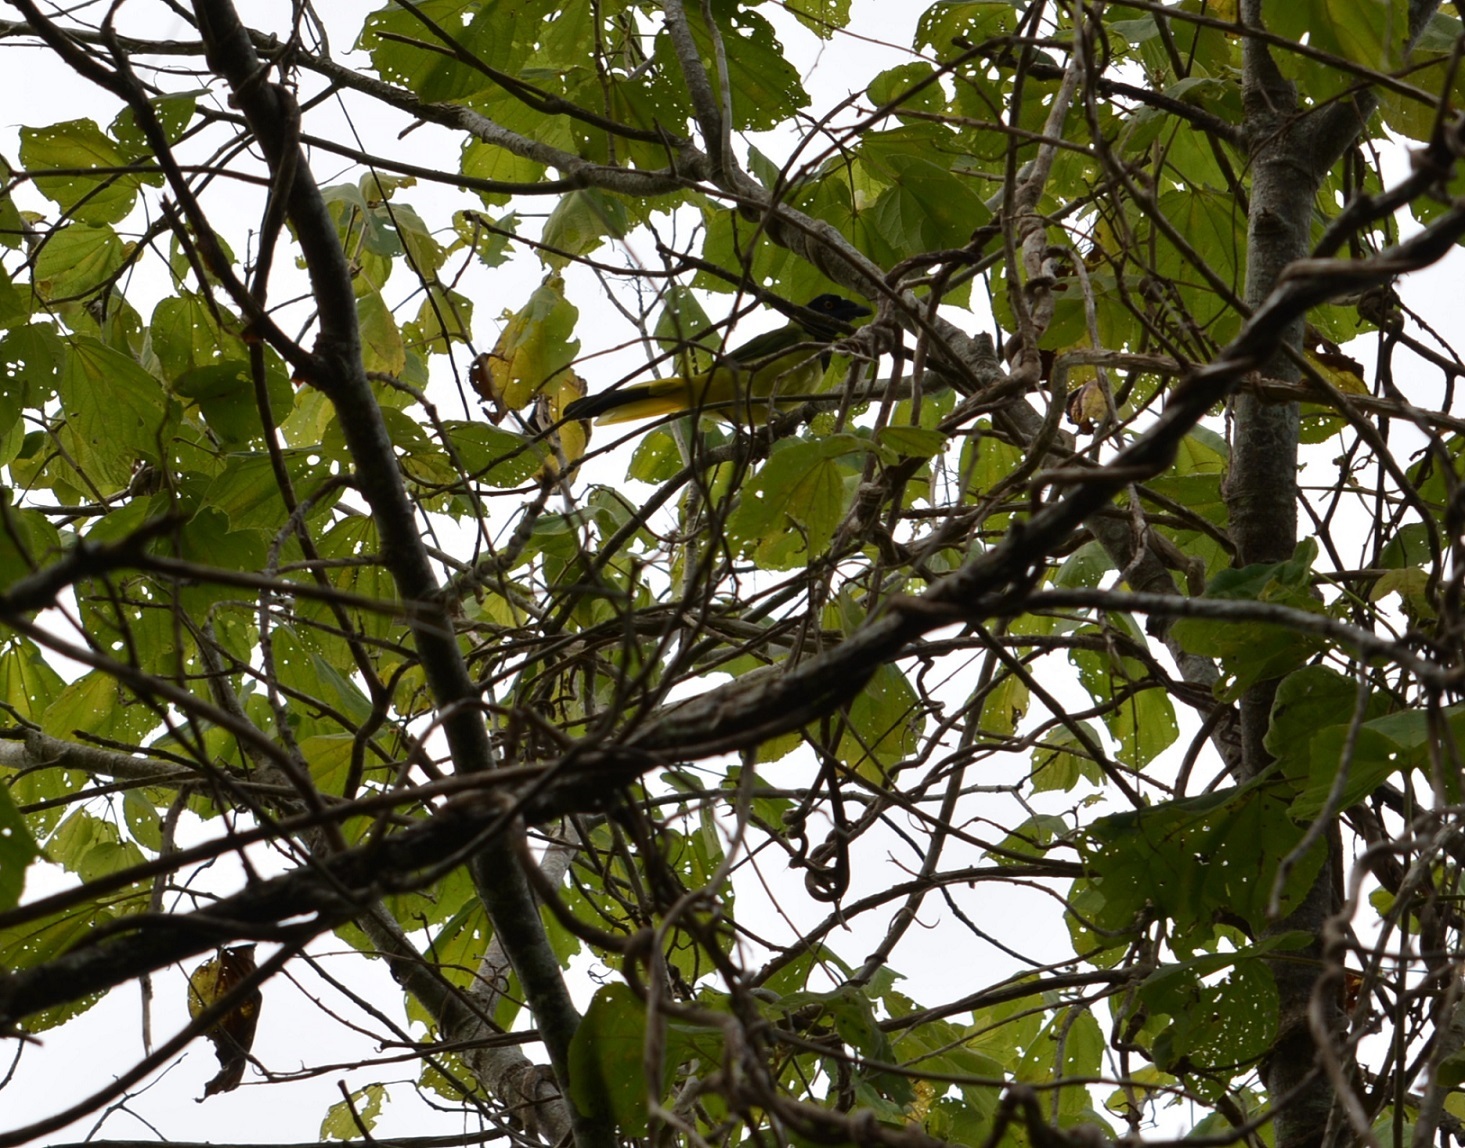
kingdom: Animalia
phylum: Chordata
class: Aves
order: Passeriformes
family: Corvidae
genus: Cyanocorax
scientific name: Cyanocorax yncas
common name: Green jay
